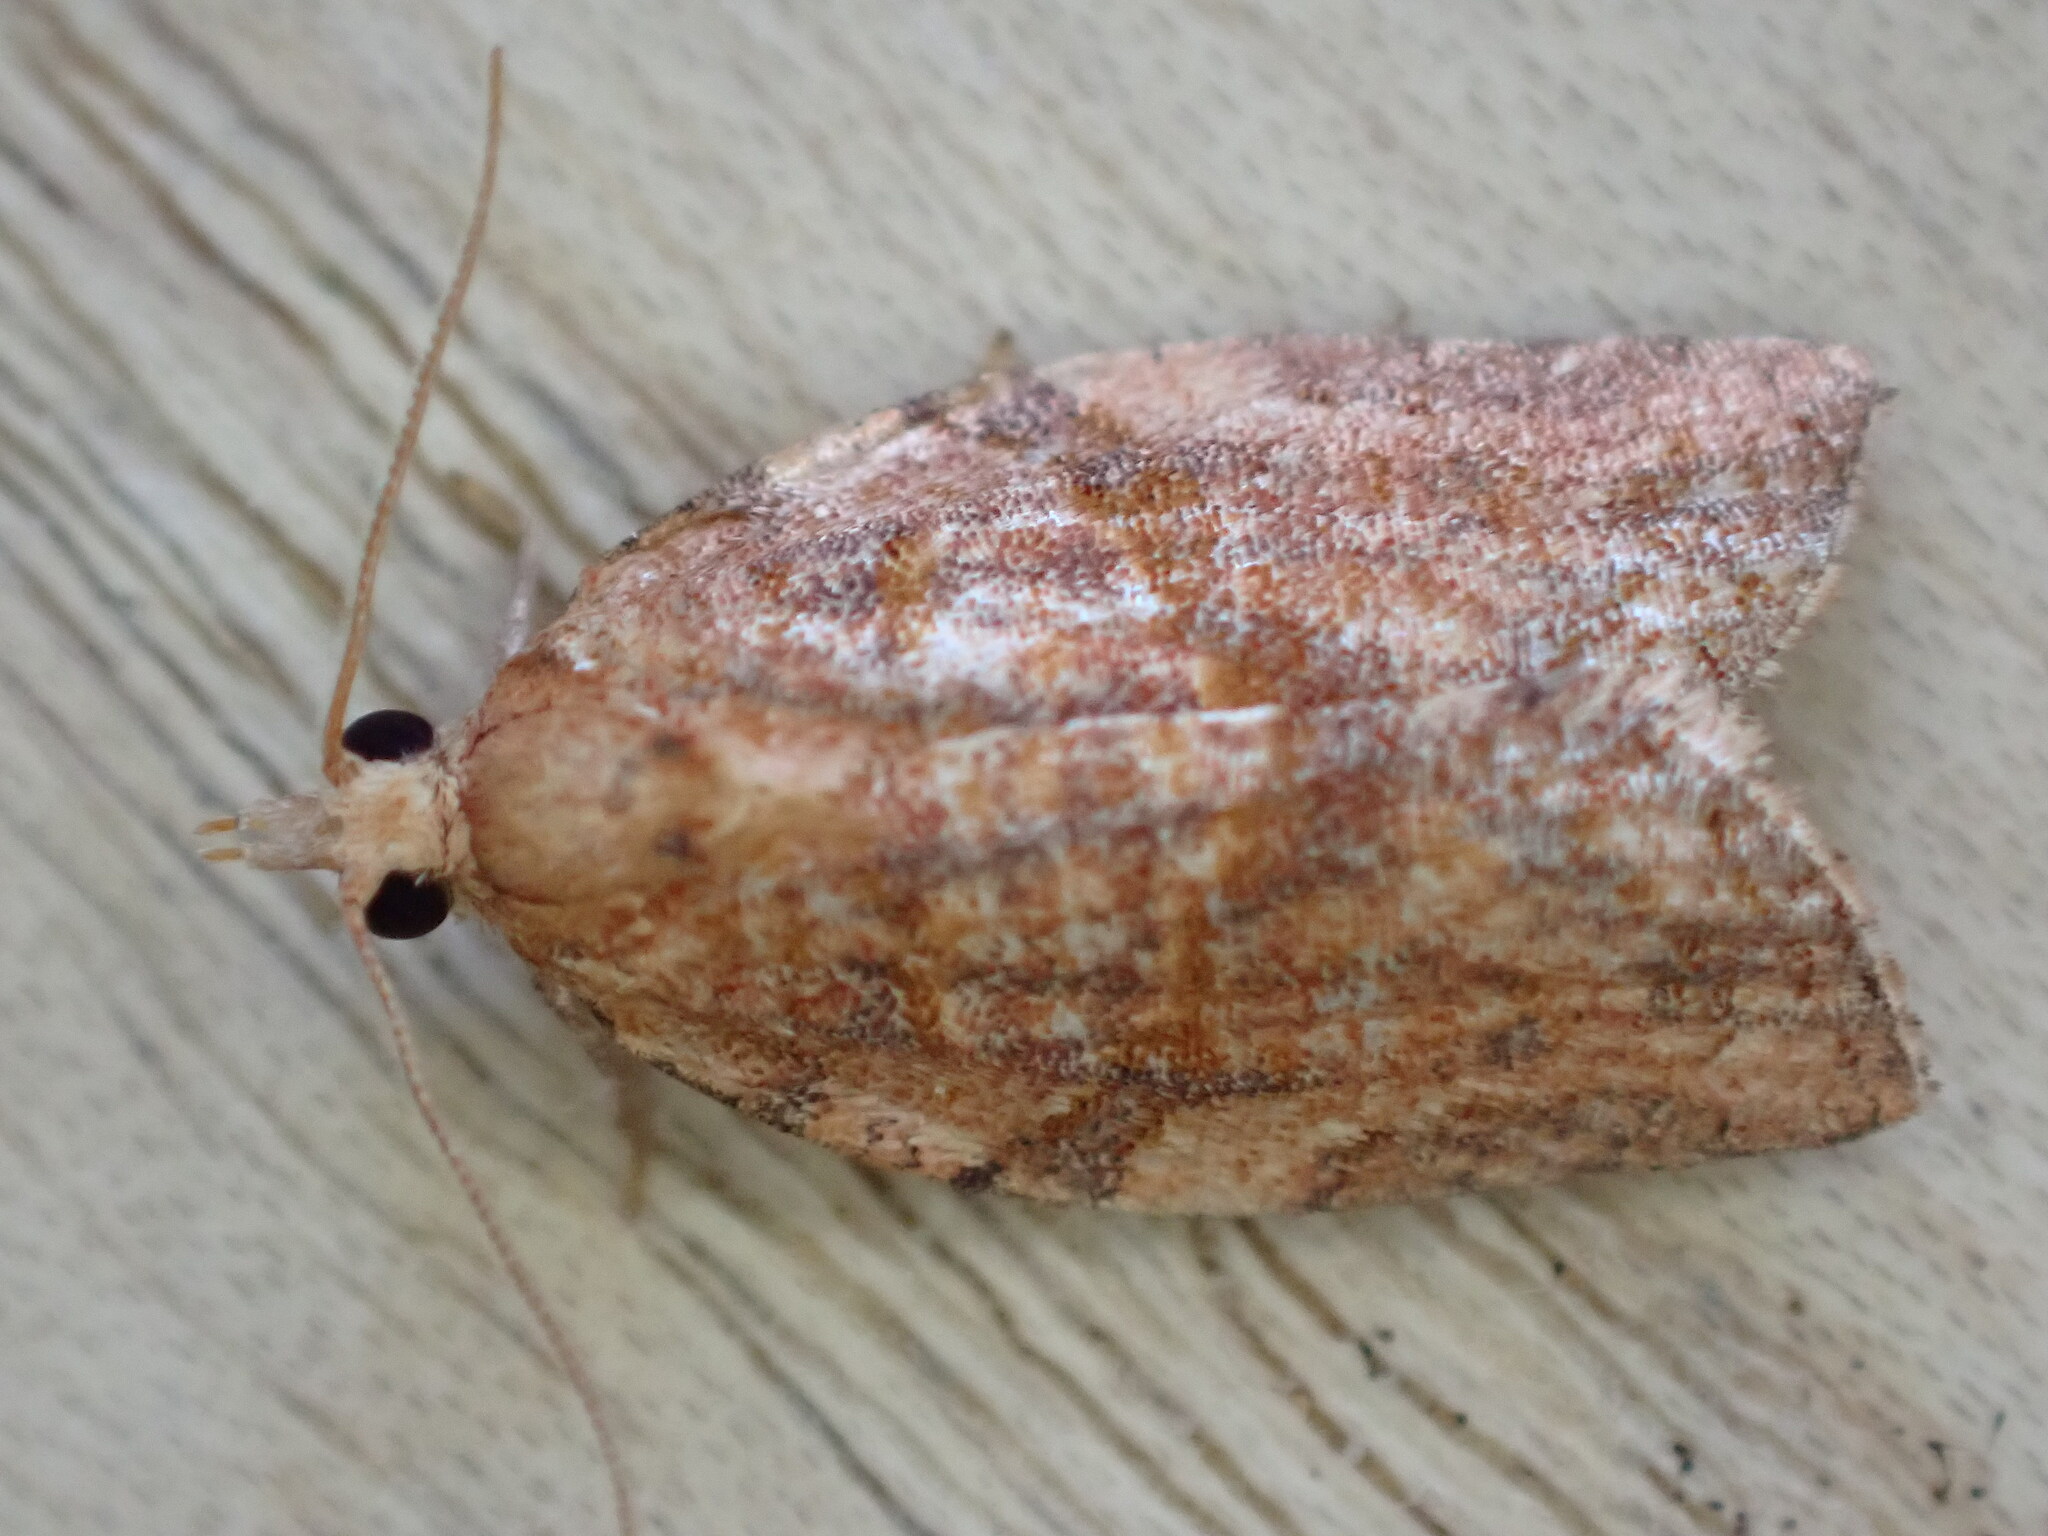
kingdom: Animalia
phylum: Arthropoda
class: Insecta
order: Lepidoptera
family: Tortricidae
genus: Epiphyas
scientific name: Epiphyas postvittana
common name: Light brown apple moth
